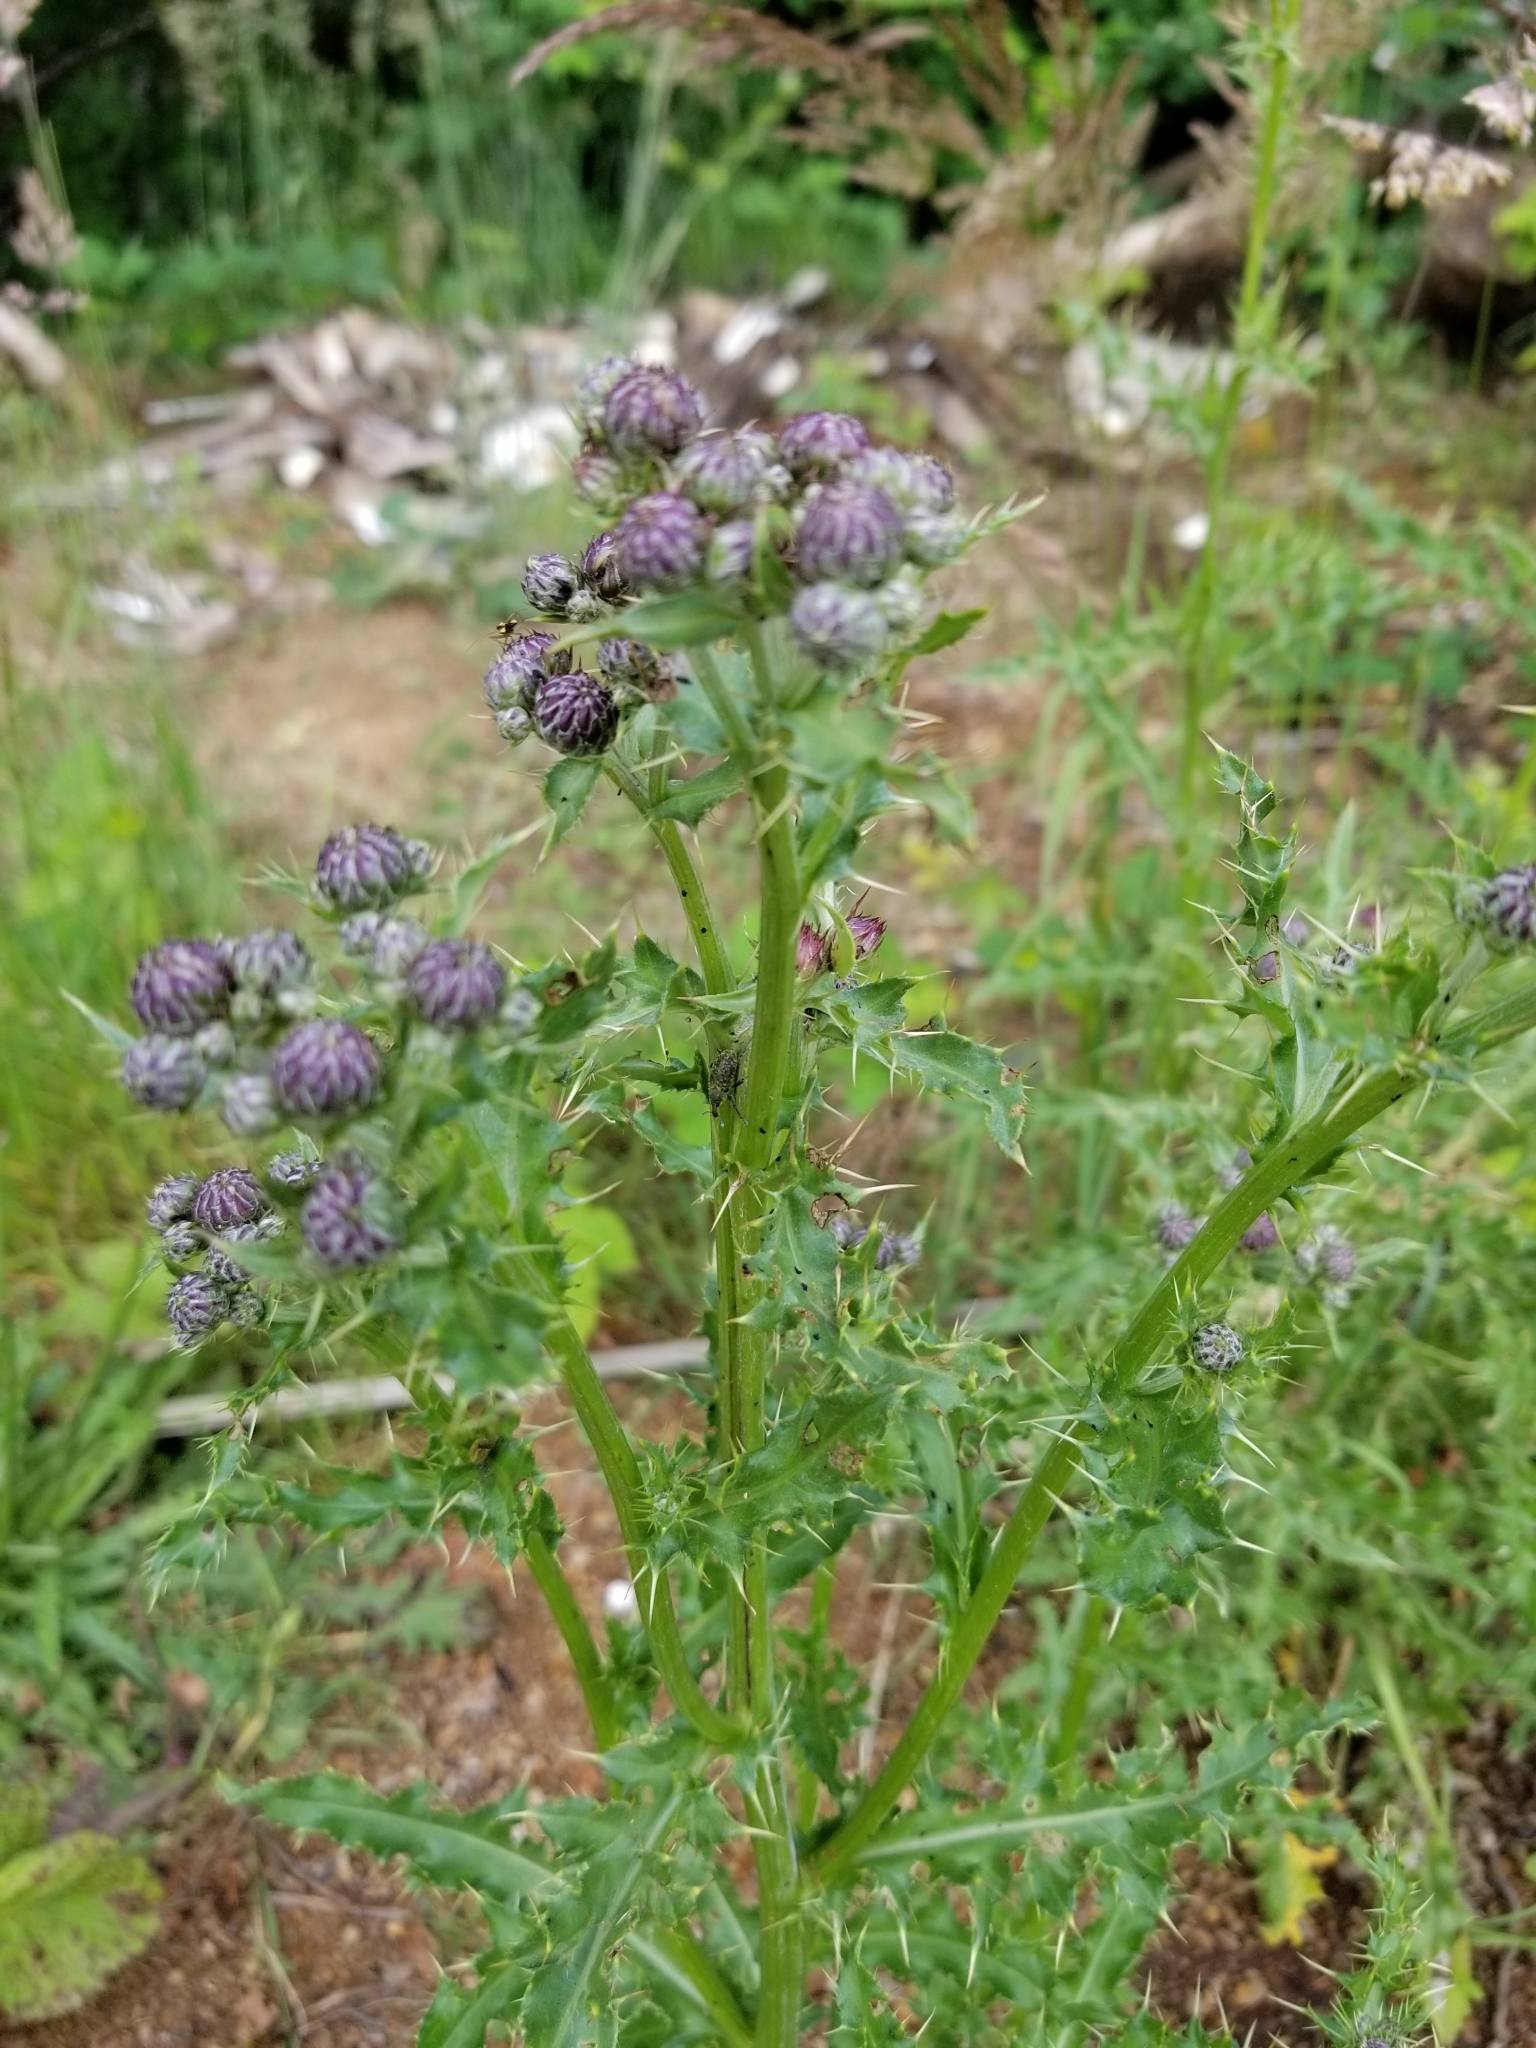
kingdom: Plantae
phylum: Tracheophyta
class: Magnoliopsida
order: Asterales
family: Asteraceae
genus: Cirsium
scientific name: Cirsium arvense
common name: Creeping thistle
